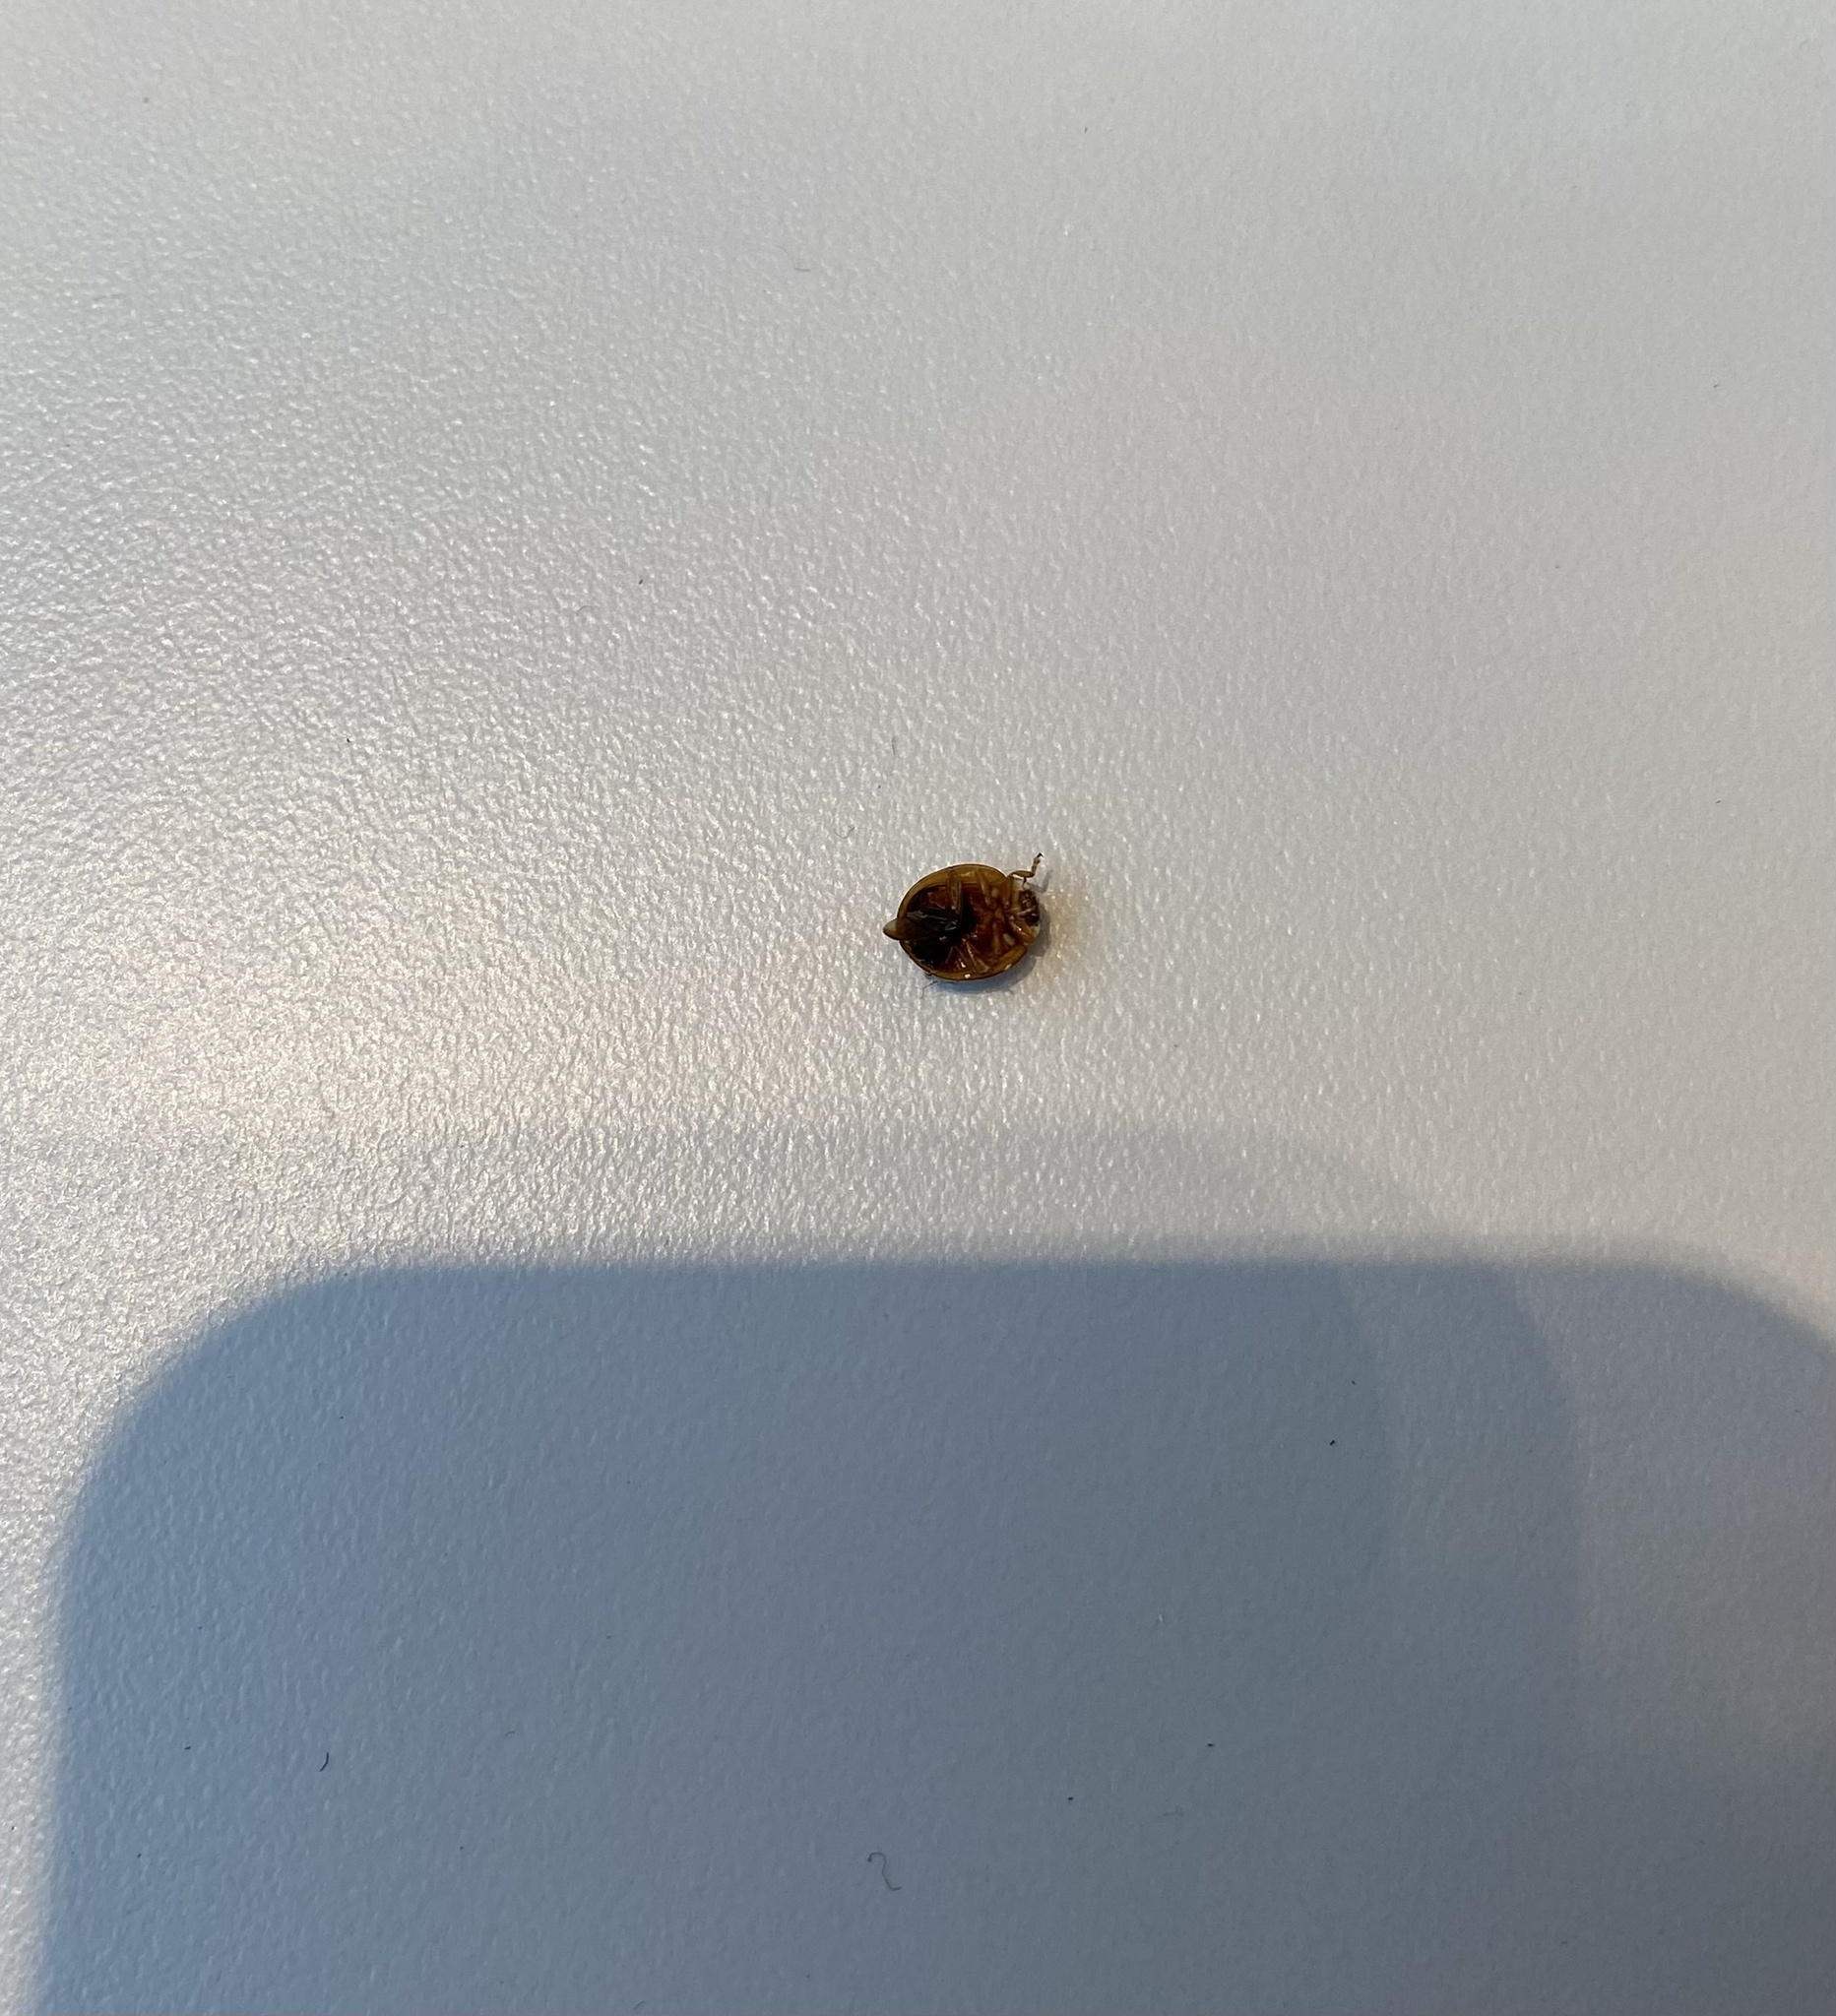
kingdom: Animalia
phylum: Arthropoda
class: Insecta
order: Coleoptera
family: Coccinellidae
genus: Harmonia
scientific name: Harmonia axyridis
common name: Harlequin ladybird
